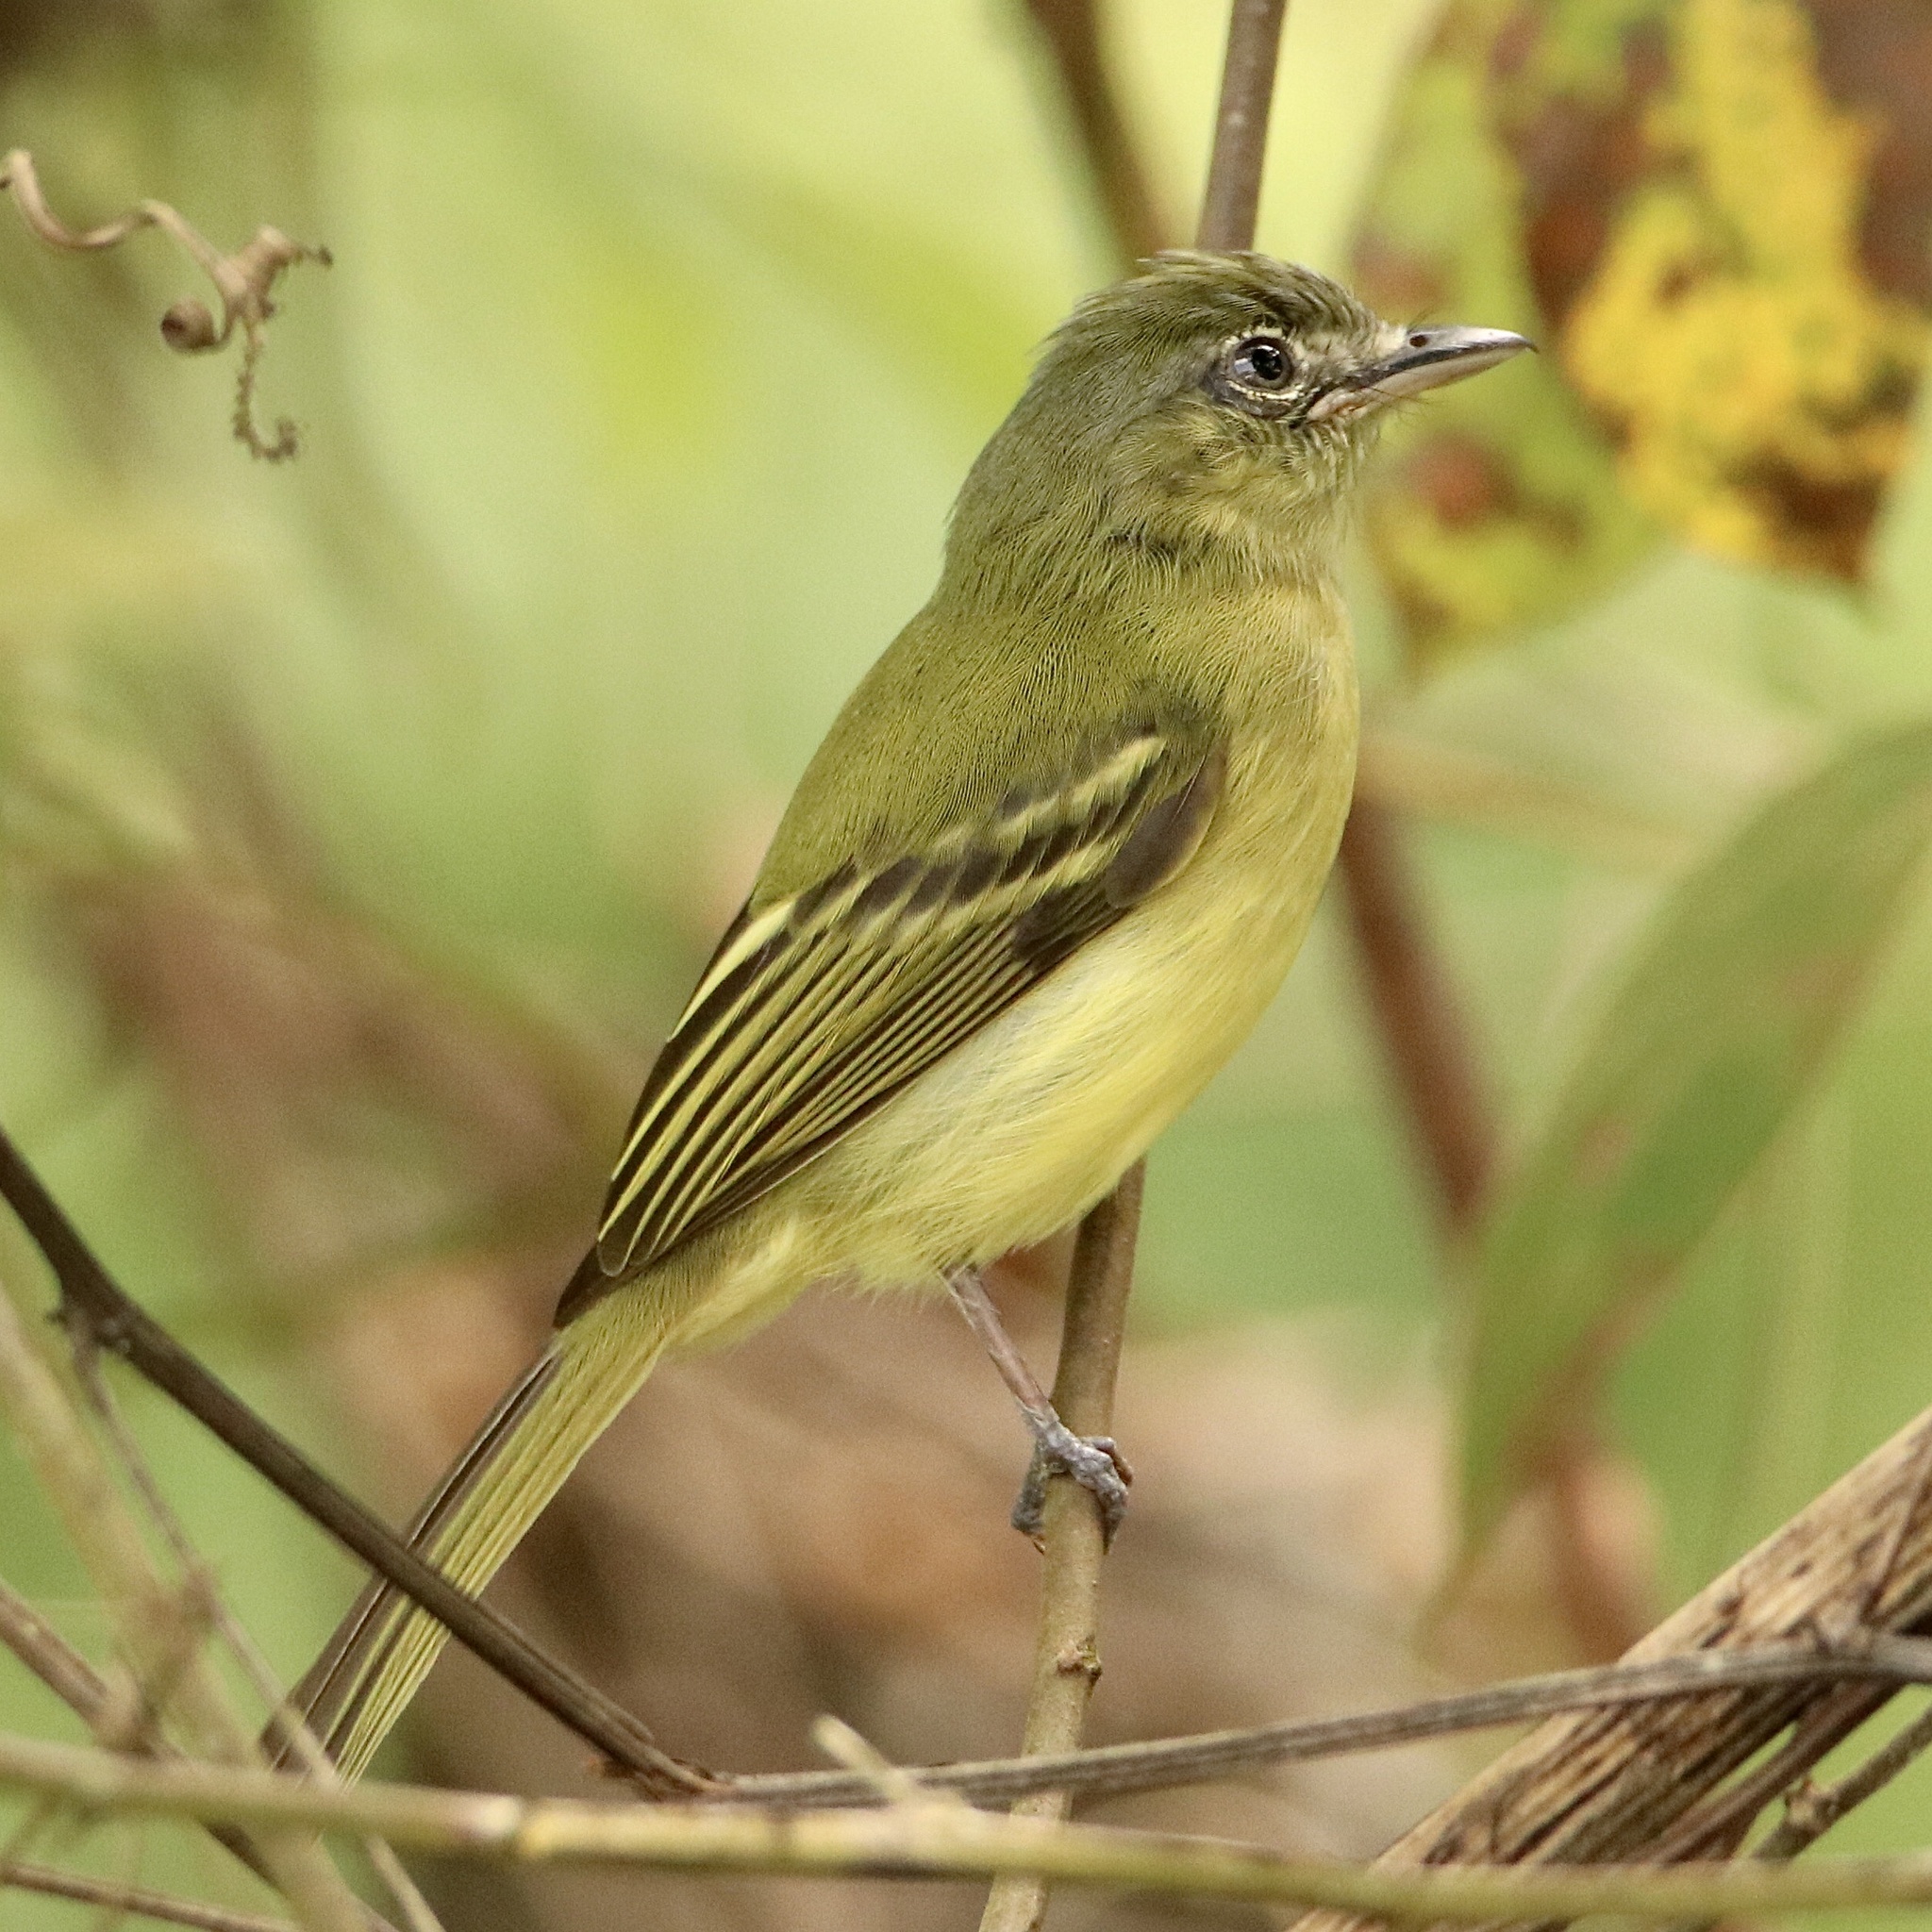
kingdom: Animalia
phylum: Chordata
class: Aves
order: Passeriformes
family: Tyrannidae
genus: Tolmomyias
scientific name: Tolmomyias sulphurescens
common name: Yellow-olive flycatcher
